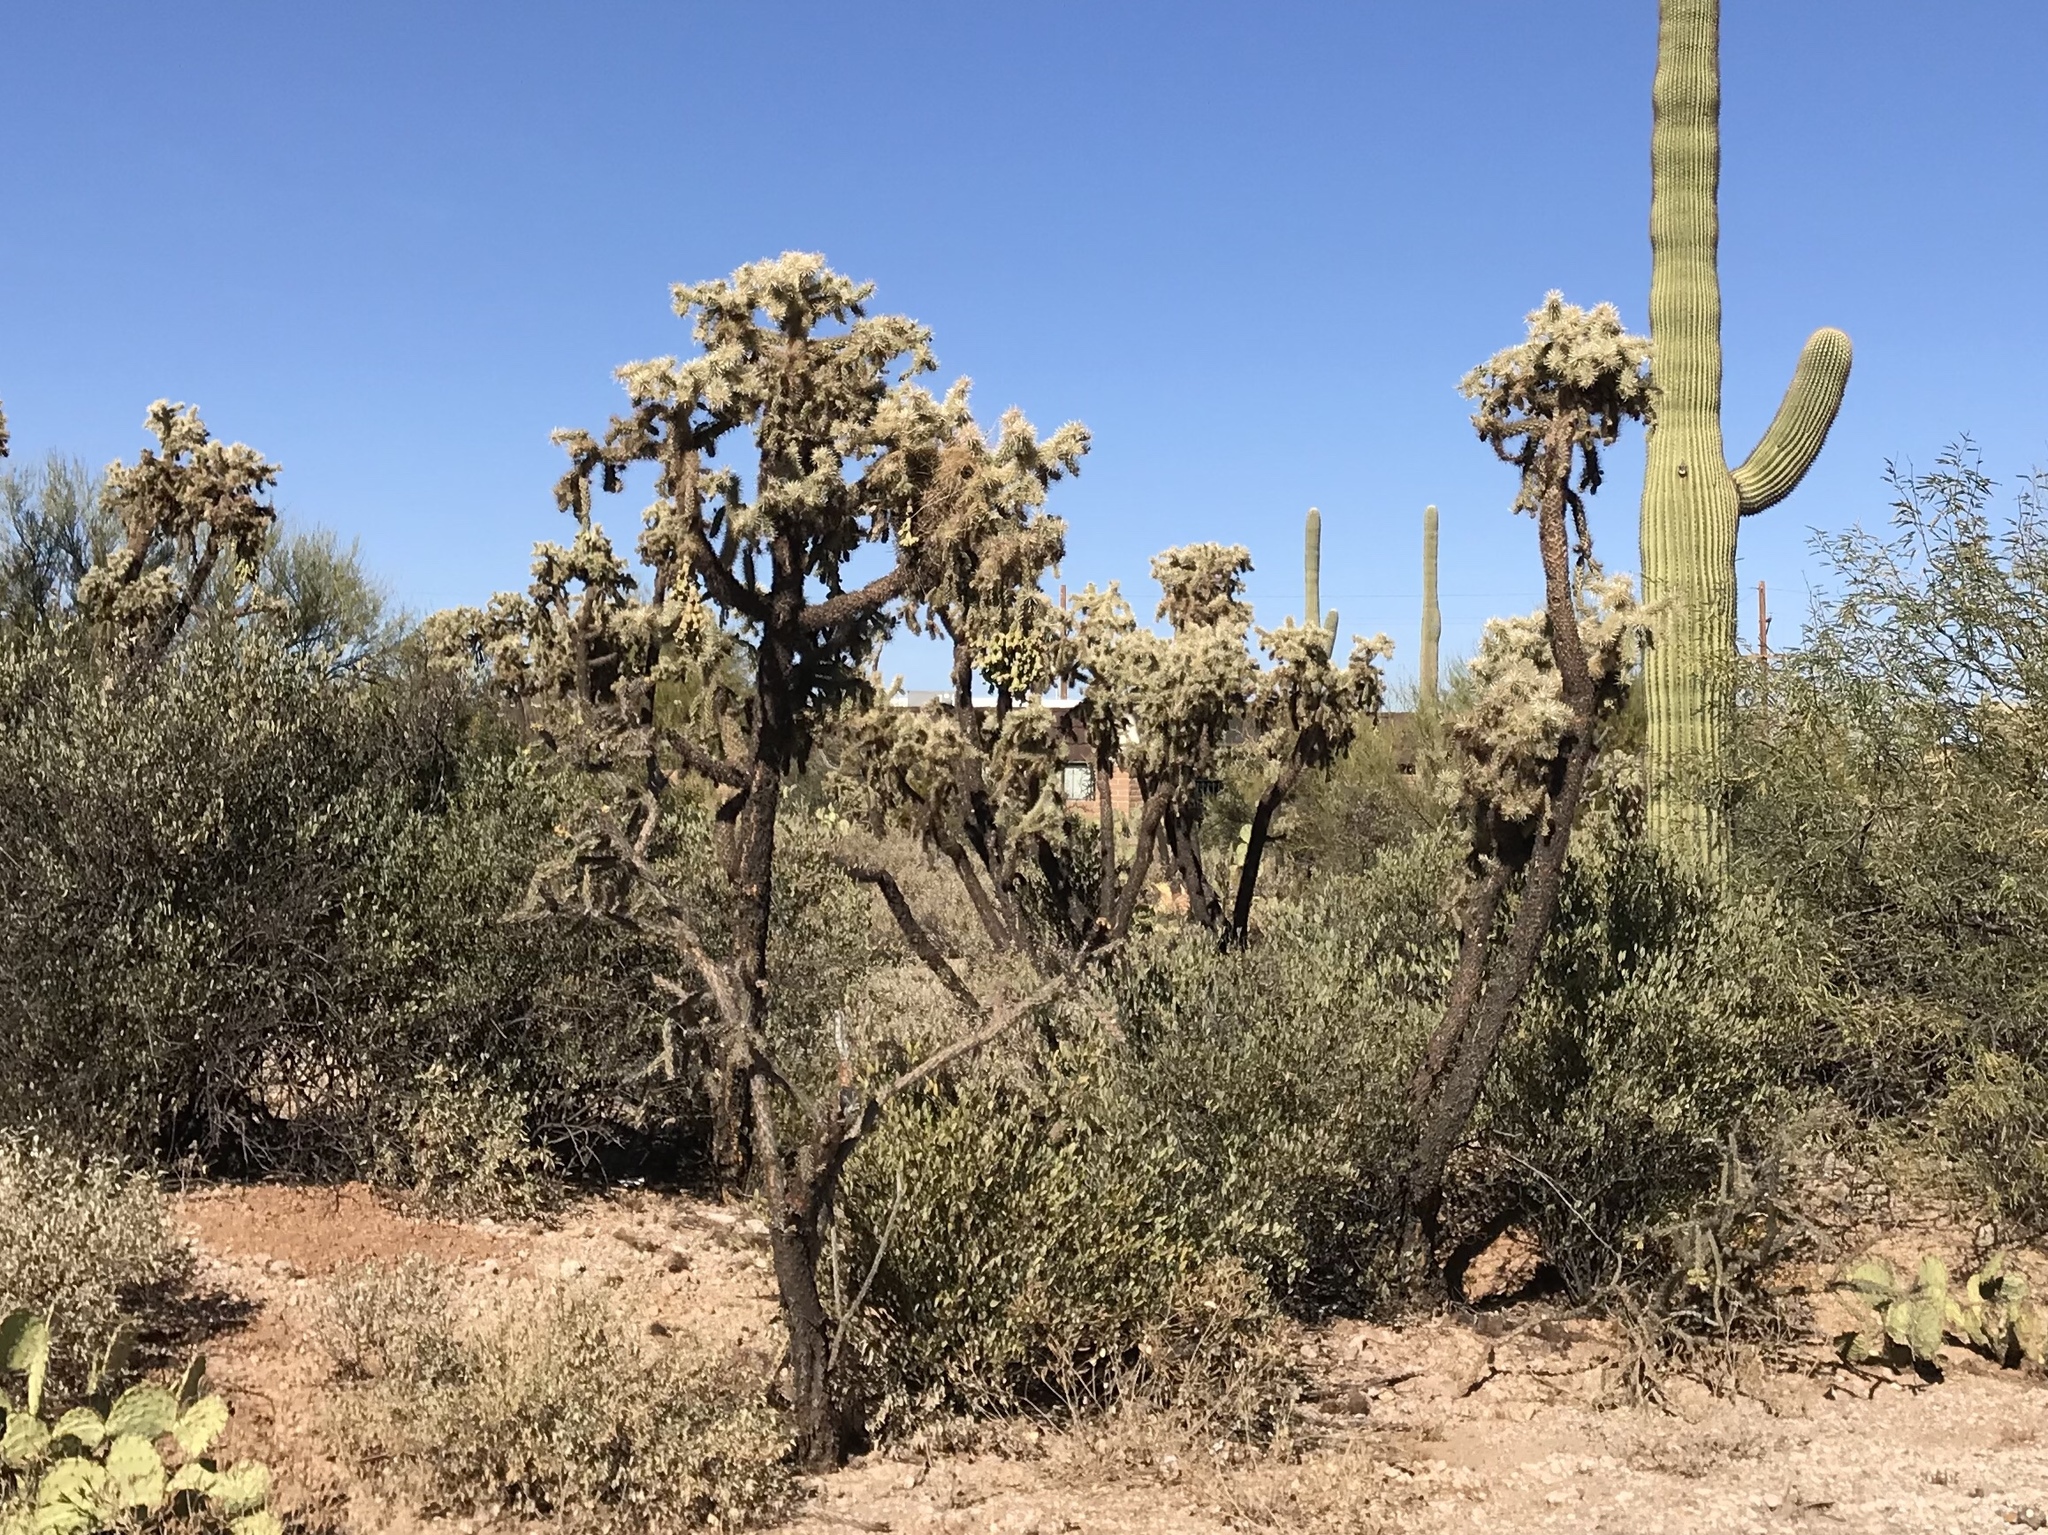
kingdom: Plantae
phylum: Tracheophyta
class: Magnoliopsida
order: Caryophyllales
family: Cactaceae
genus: Cylindropuntia
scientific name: Cylindropuntia fulgida
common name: Jumping cholla
